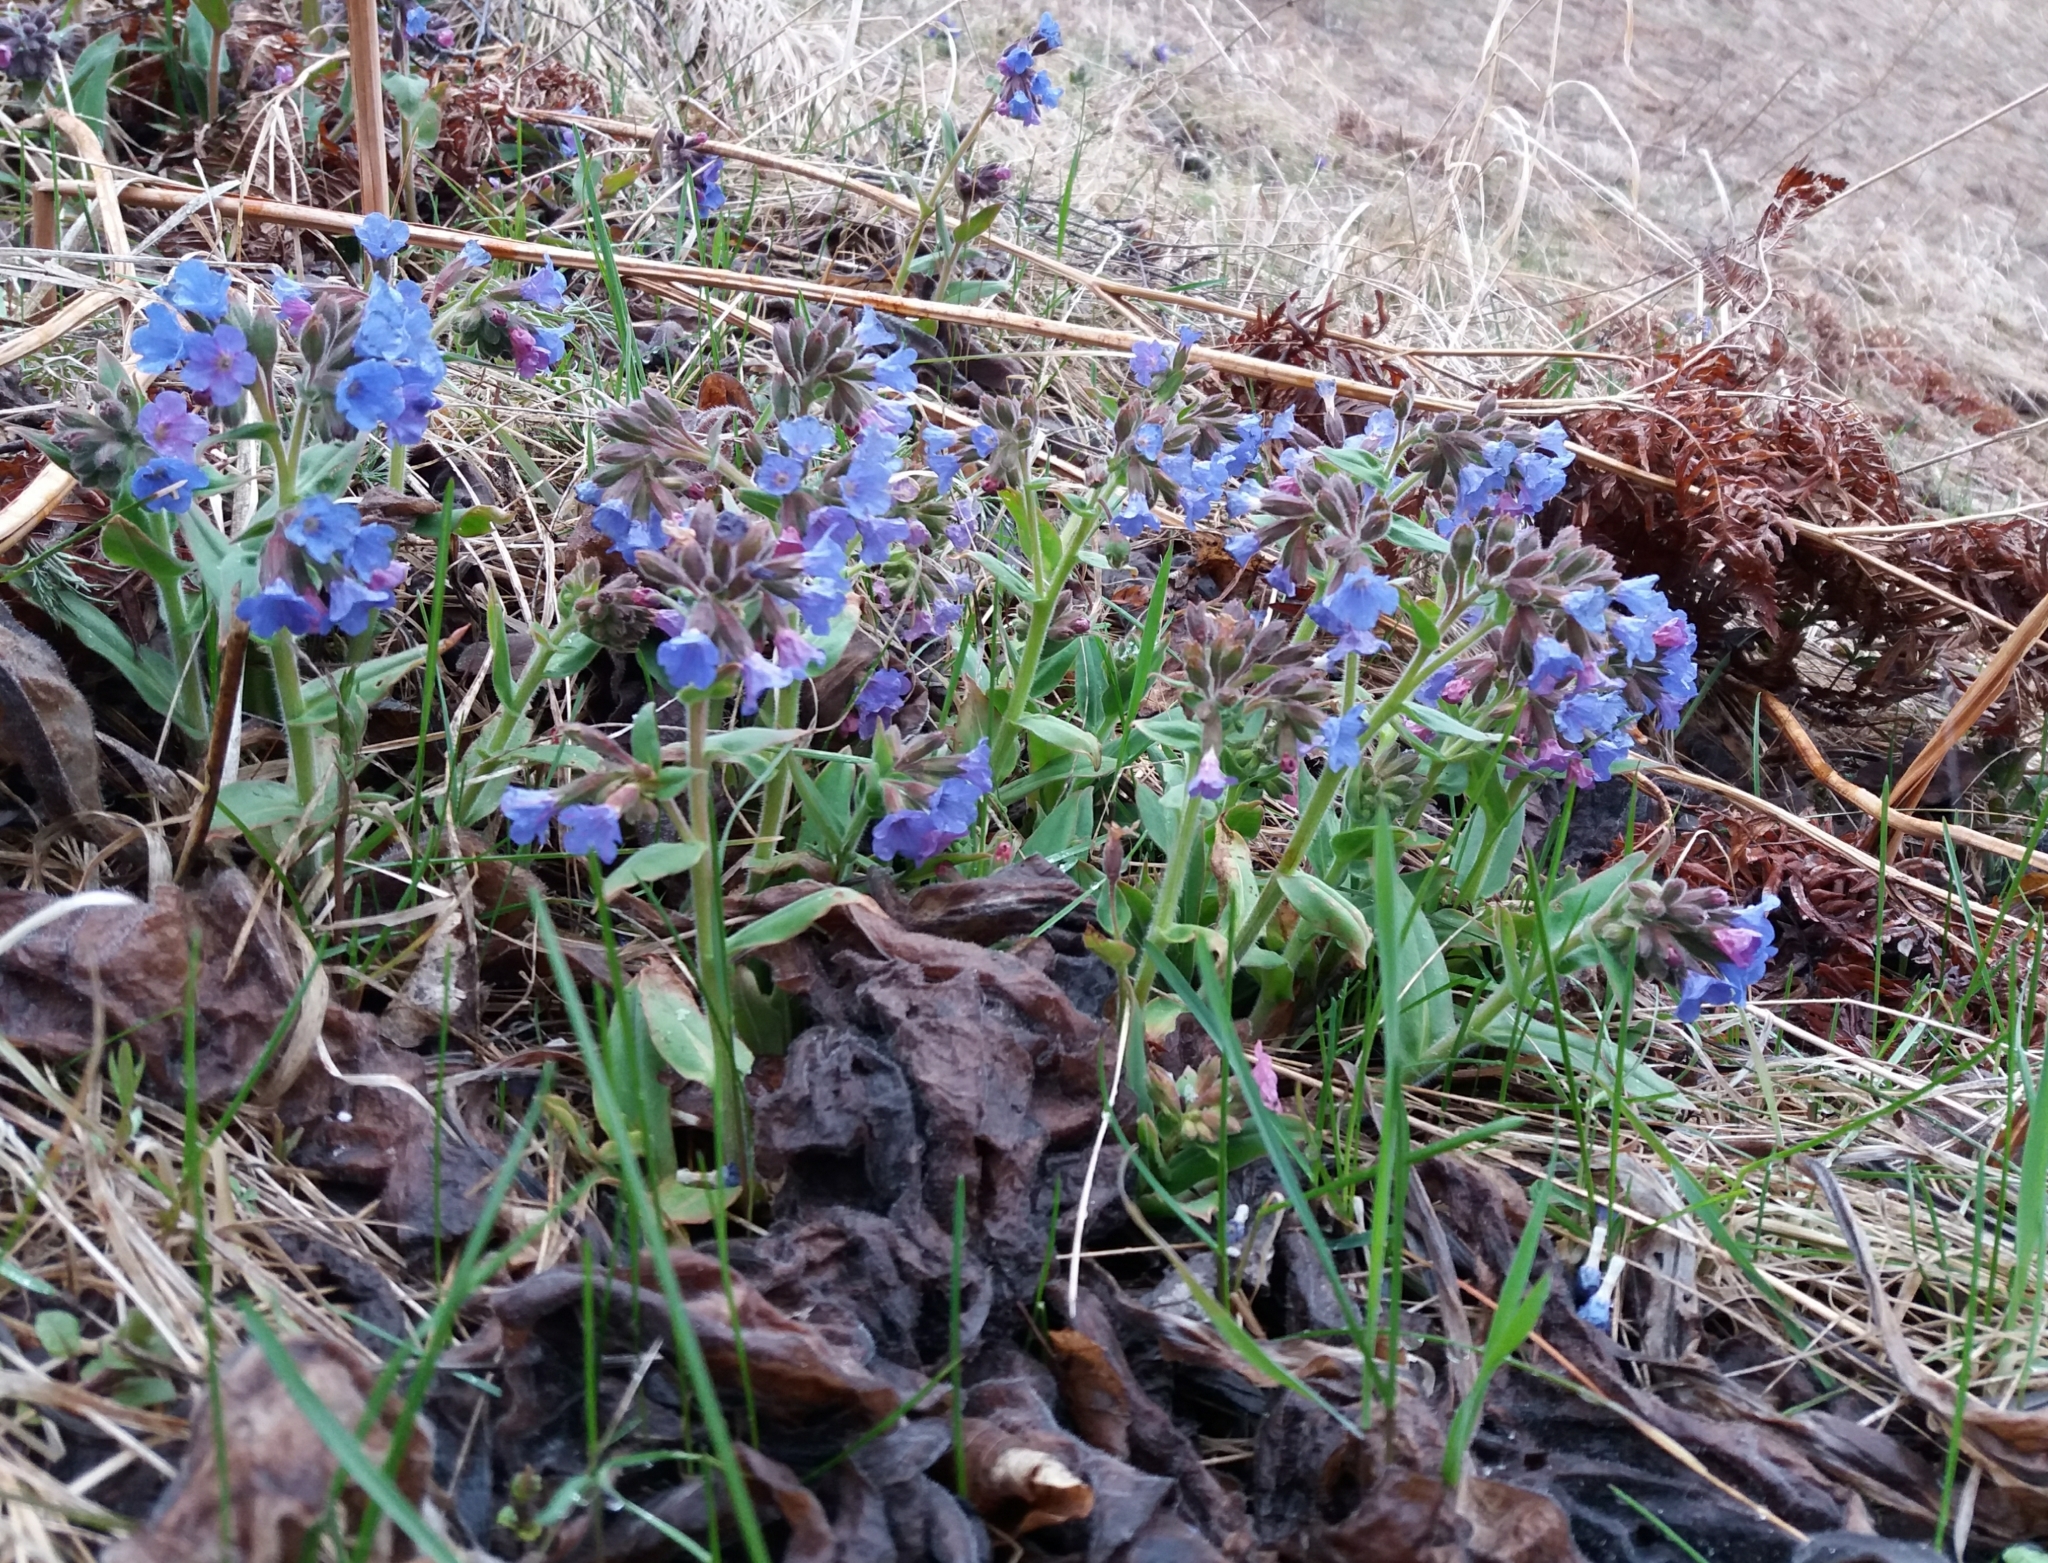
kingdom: Plantae
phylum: Tracheophyta
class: Magnoliopsida
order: Boraginales
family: Boraginaceae
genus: Pulmonaria
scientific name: Pulmonaria mollis
